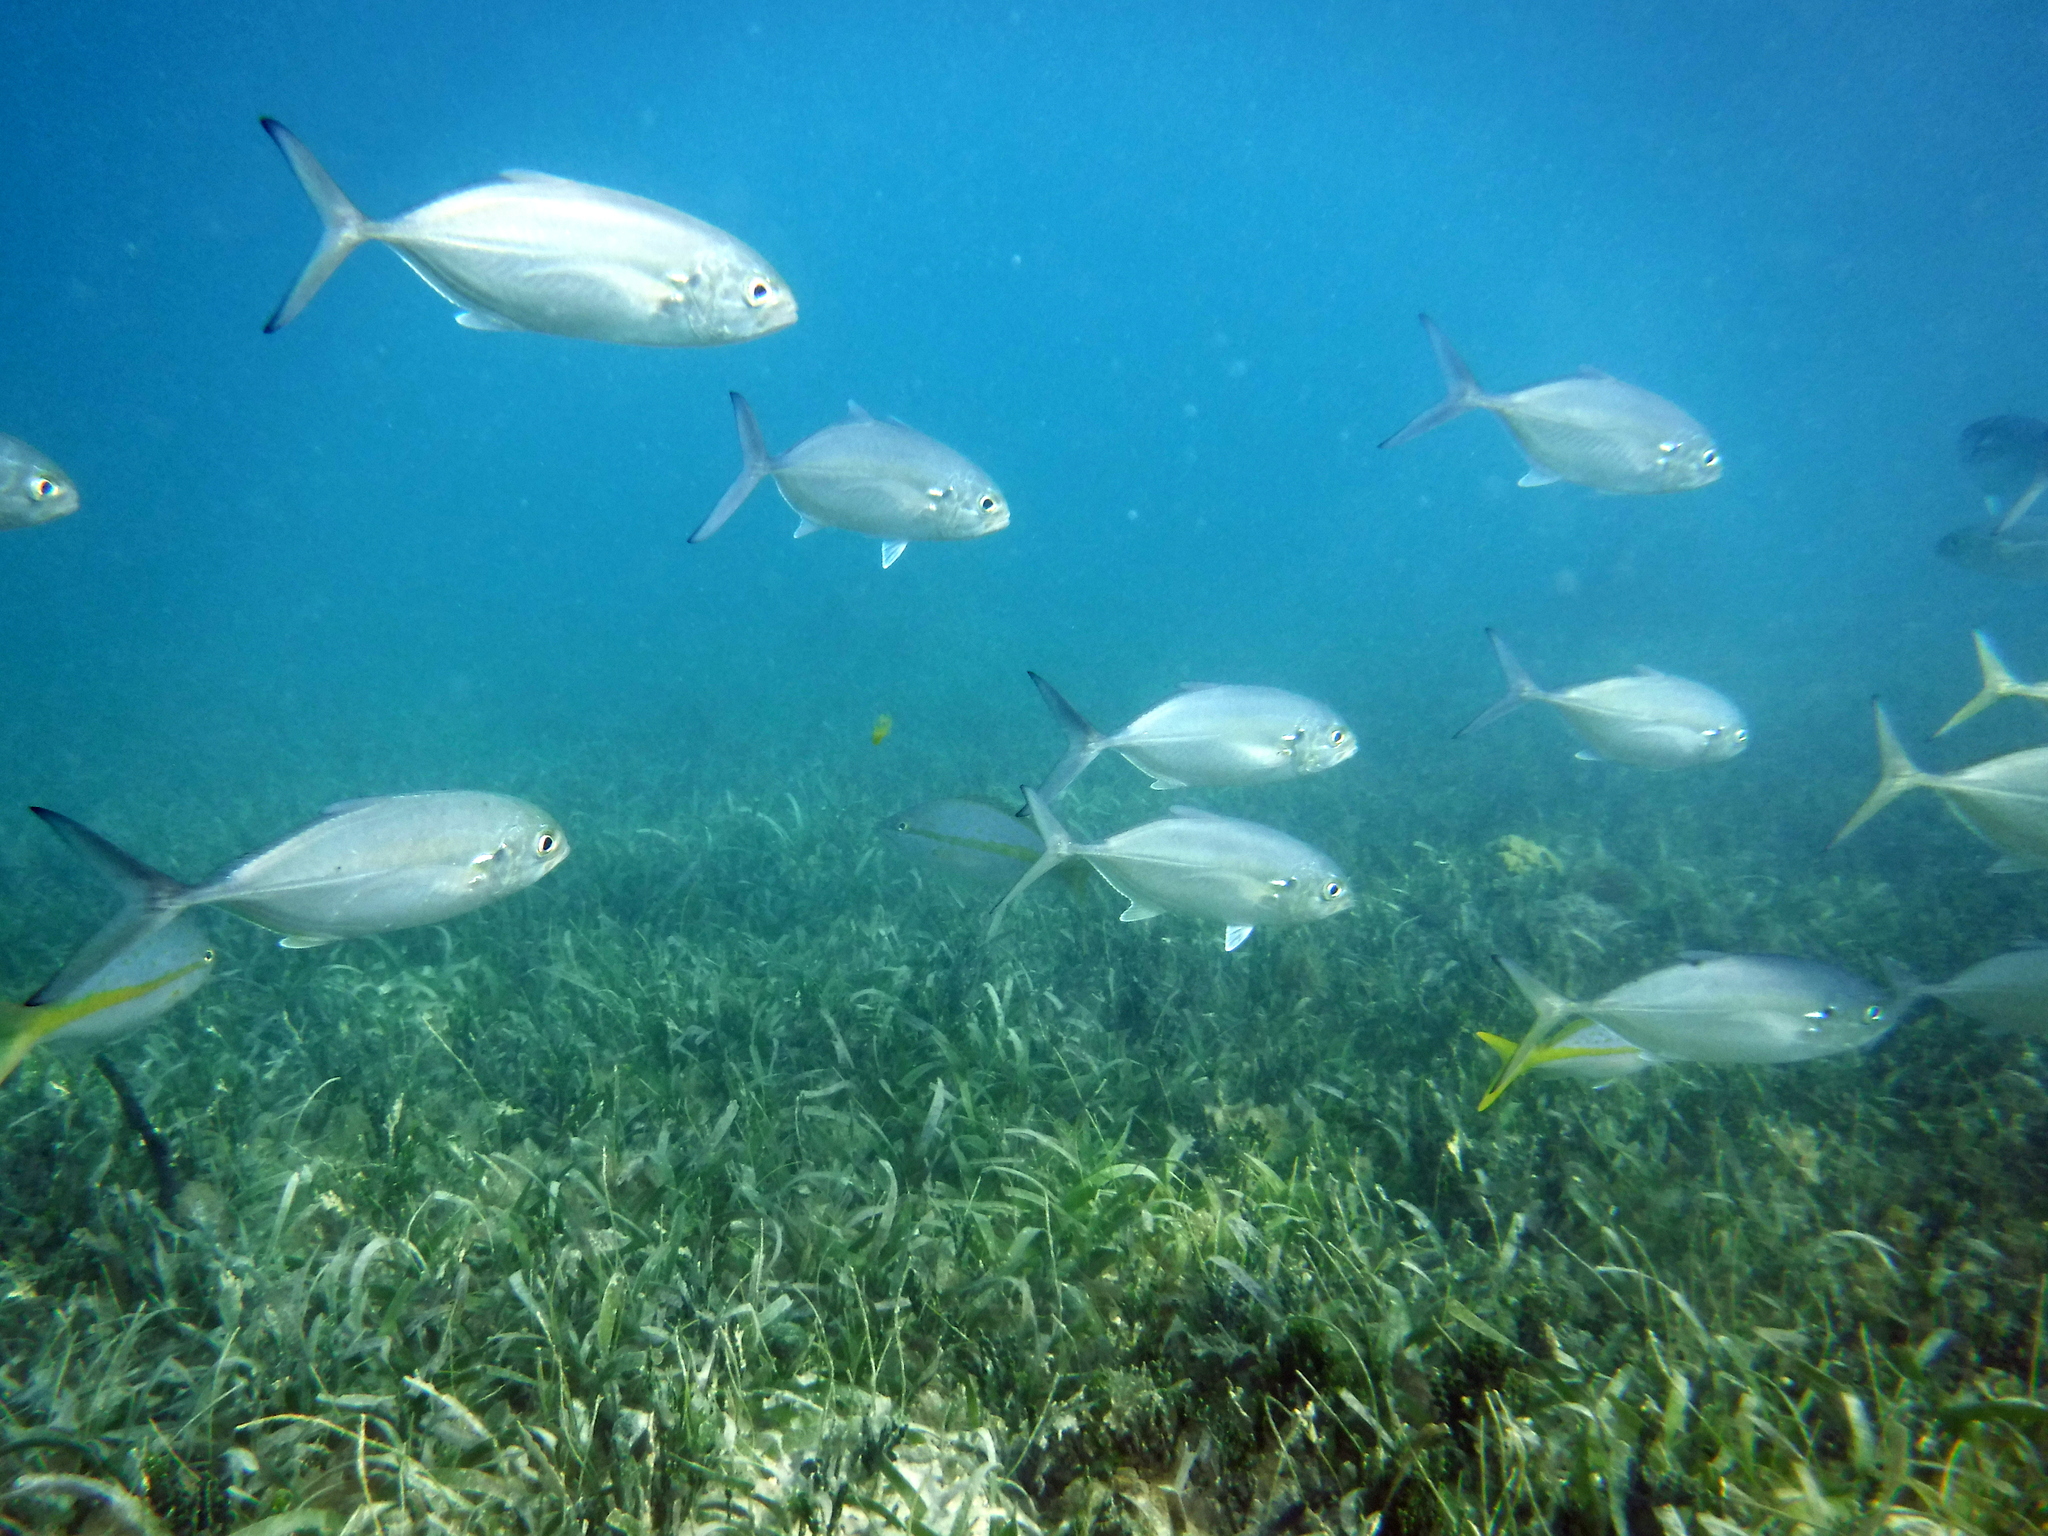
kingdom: Animalia
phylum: Chordata
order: Perciformes
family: Carangidae
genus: Caranx
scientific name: Caranx crysos
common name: Blue runner
